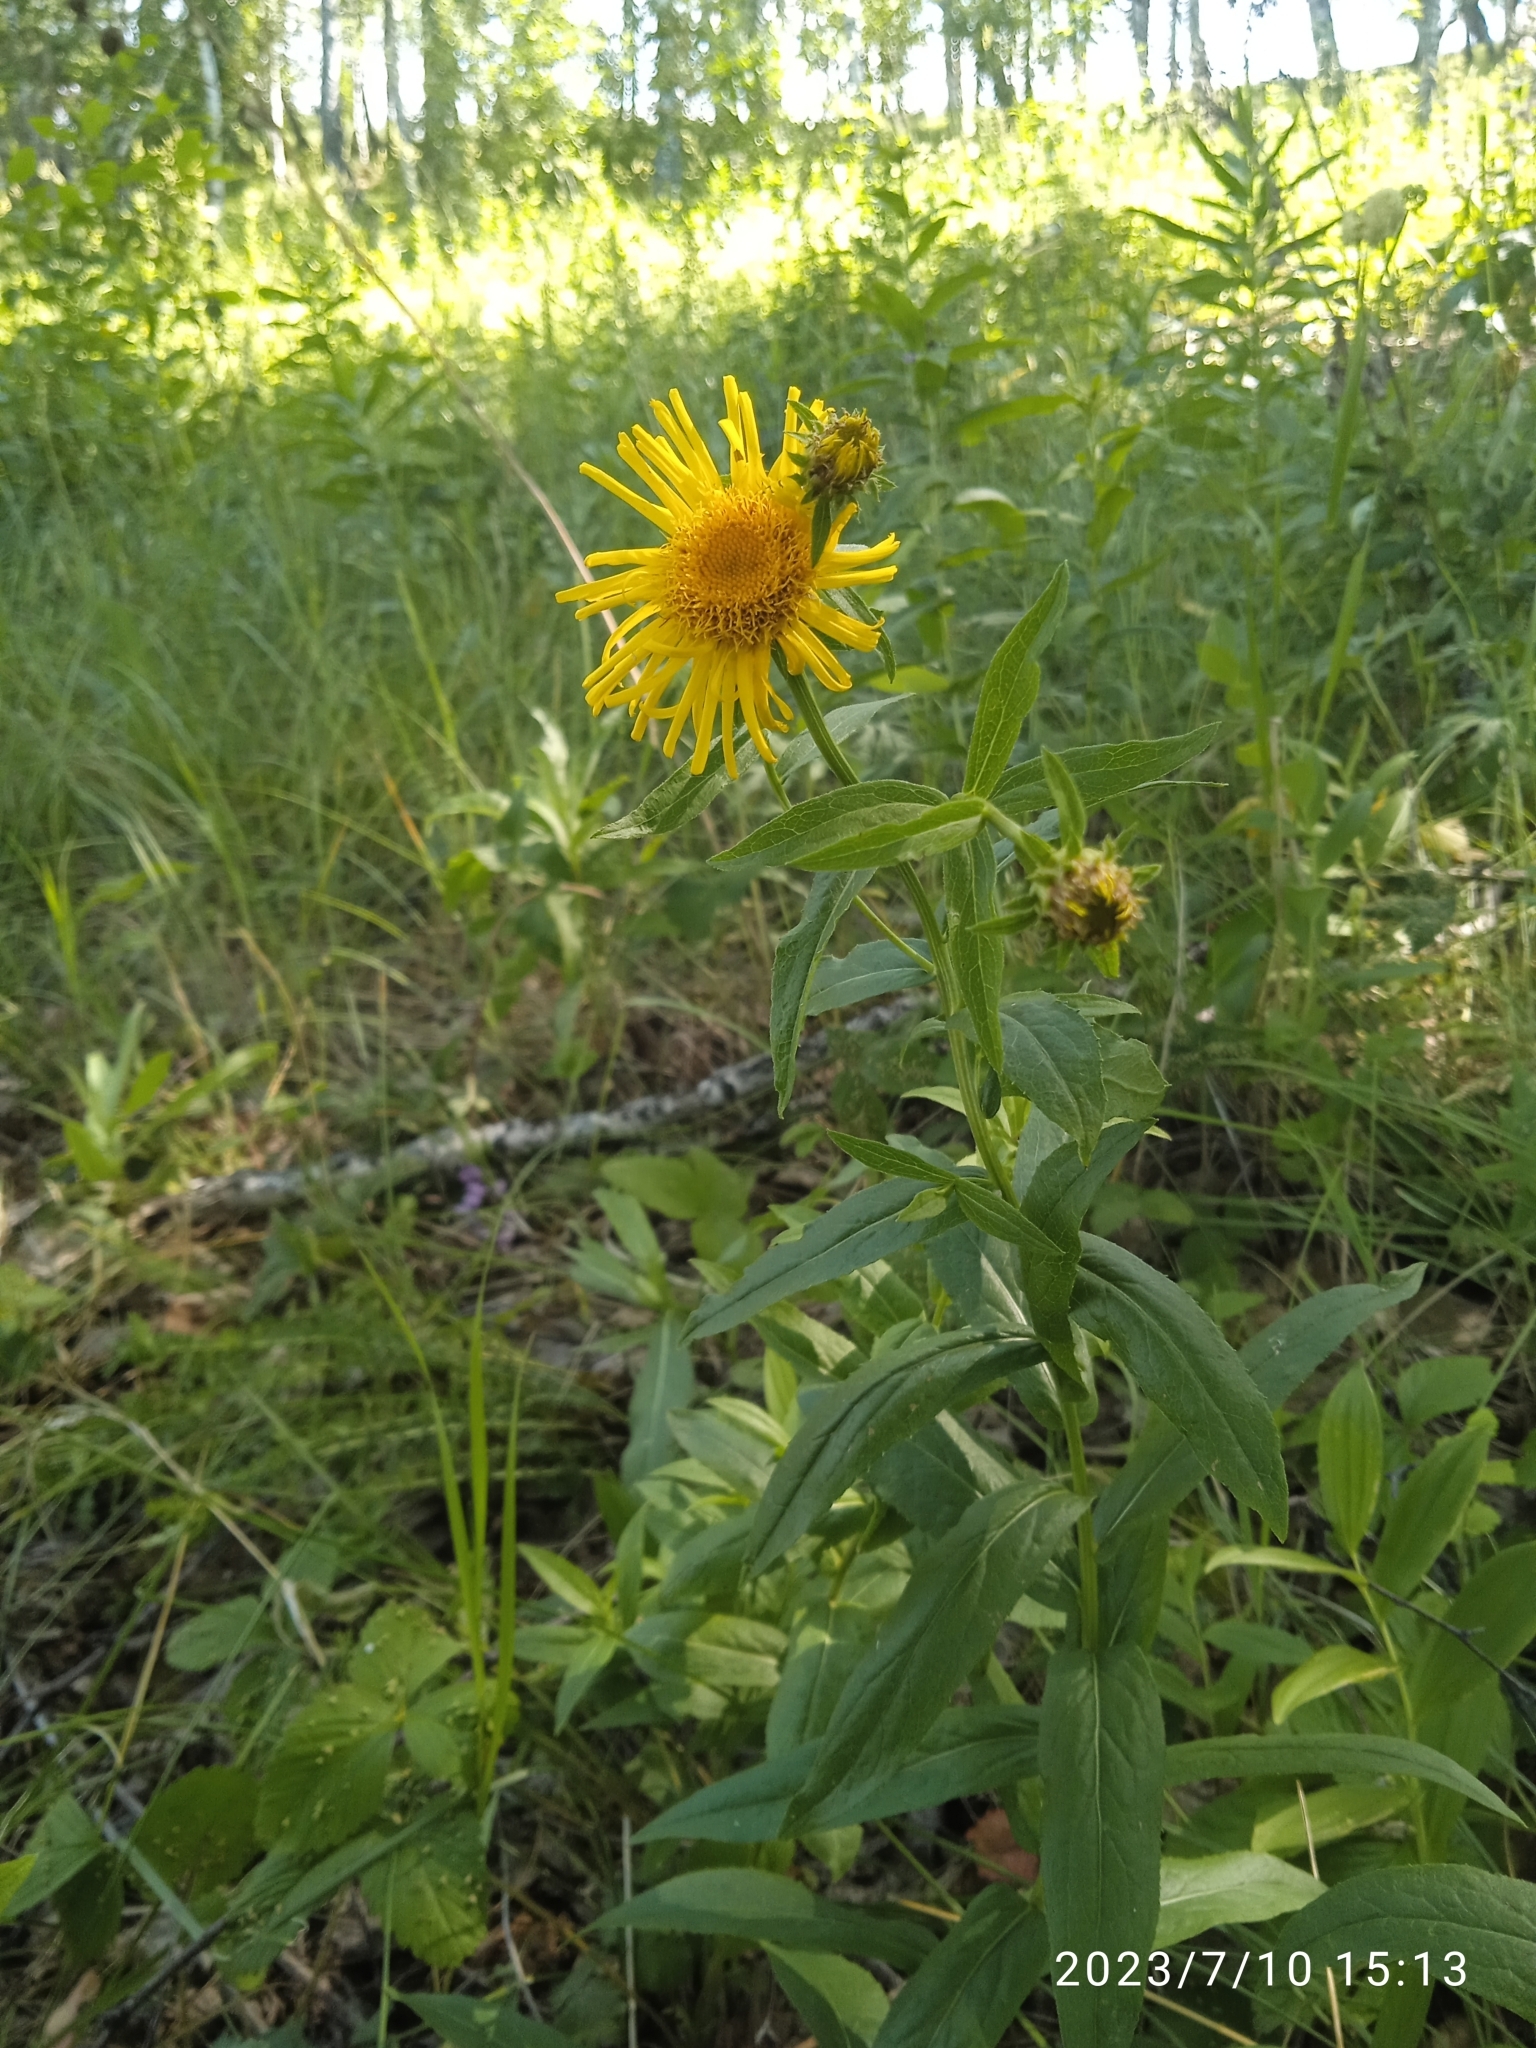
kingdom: Plantae
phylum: Tracheophyta
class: Magnoliopsida
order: Asterales
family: Asteraceae
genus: Pentanema
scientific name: Pentanema salicinum
